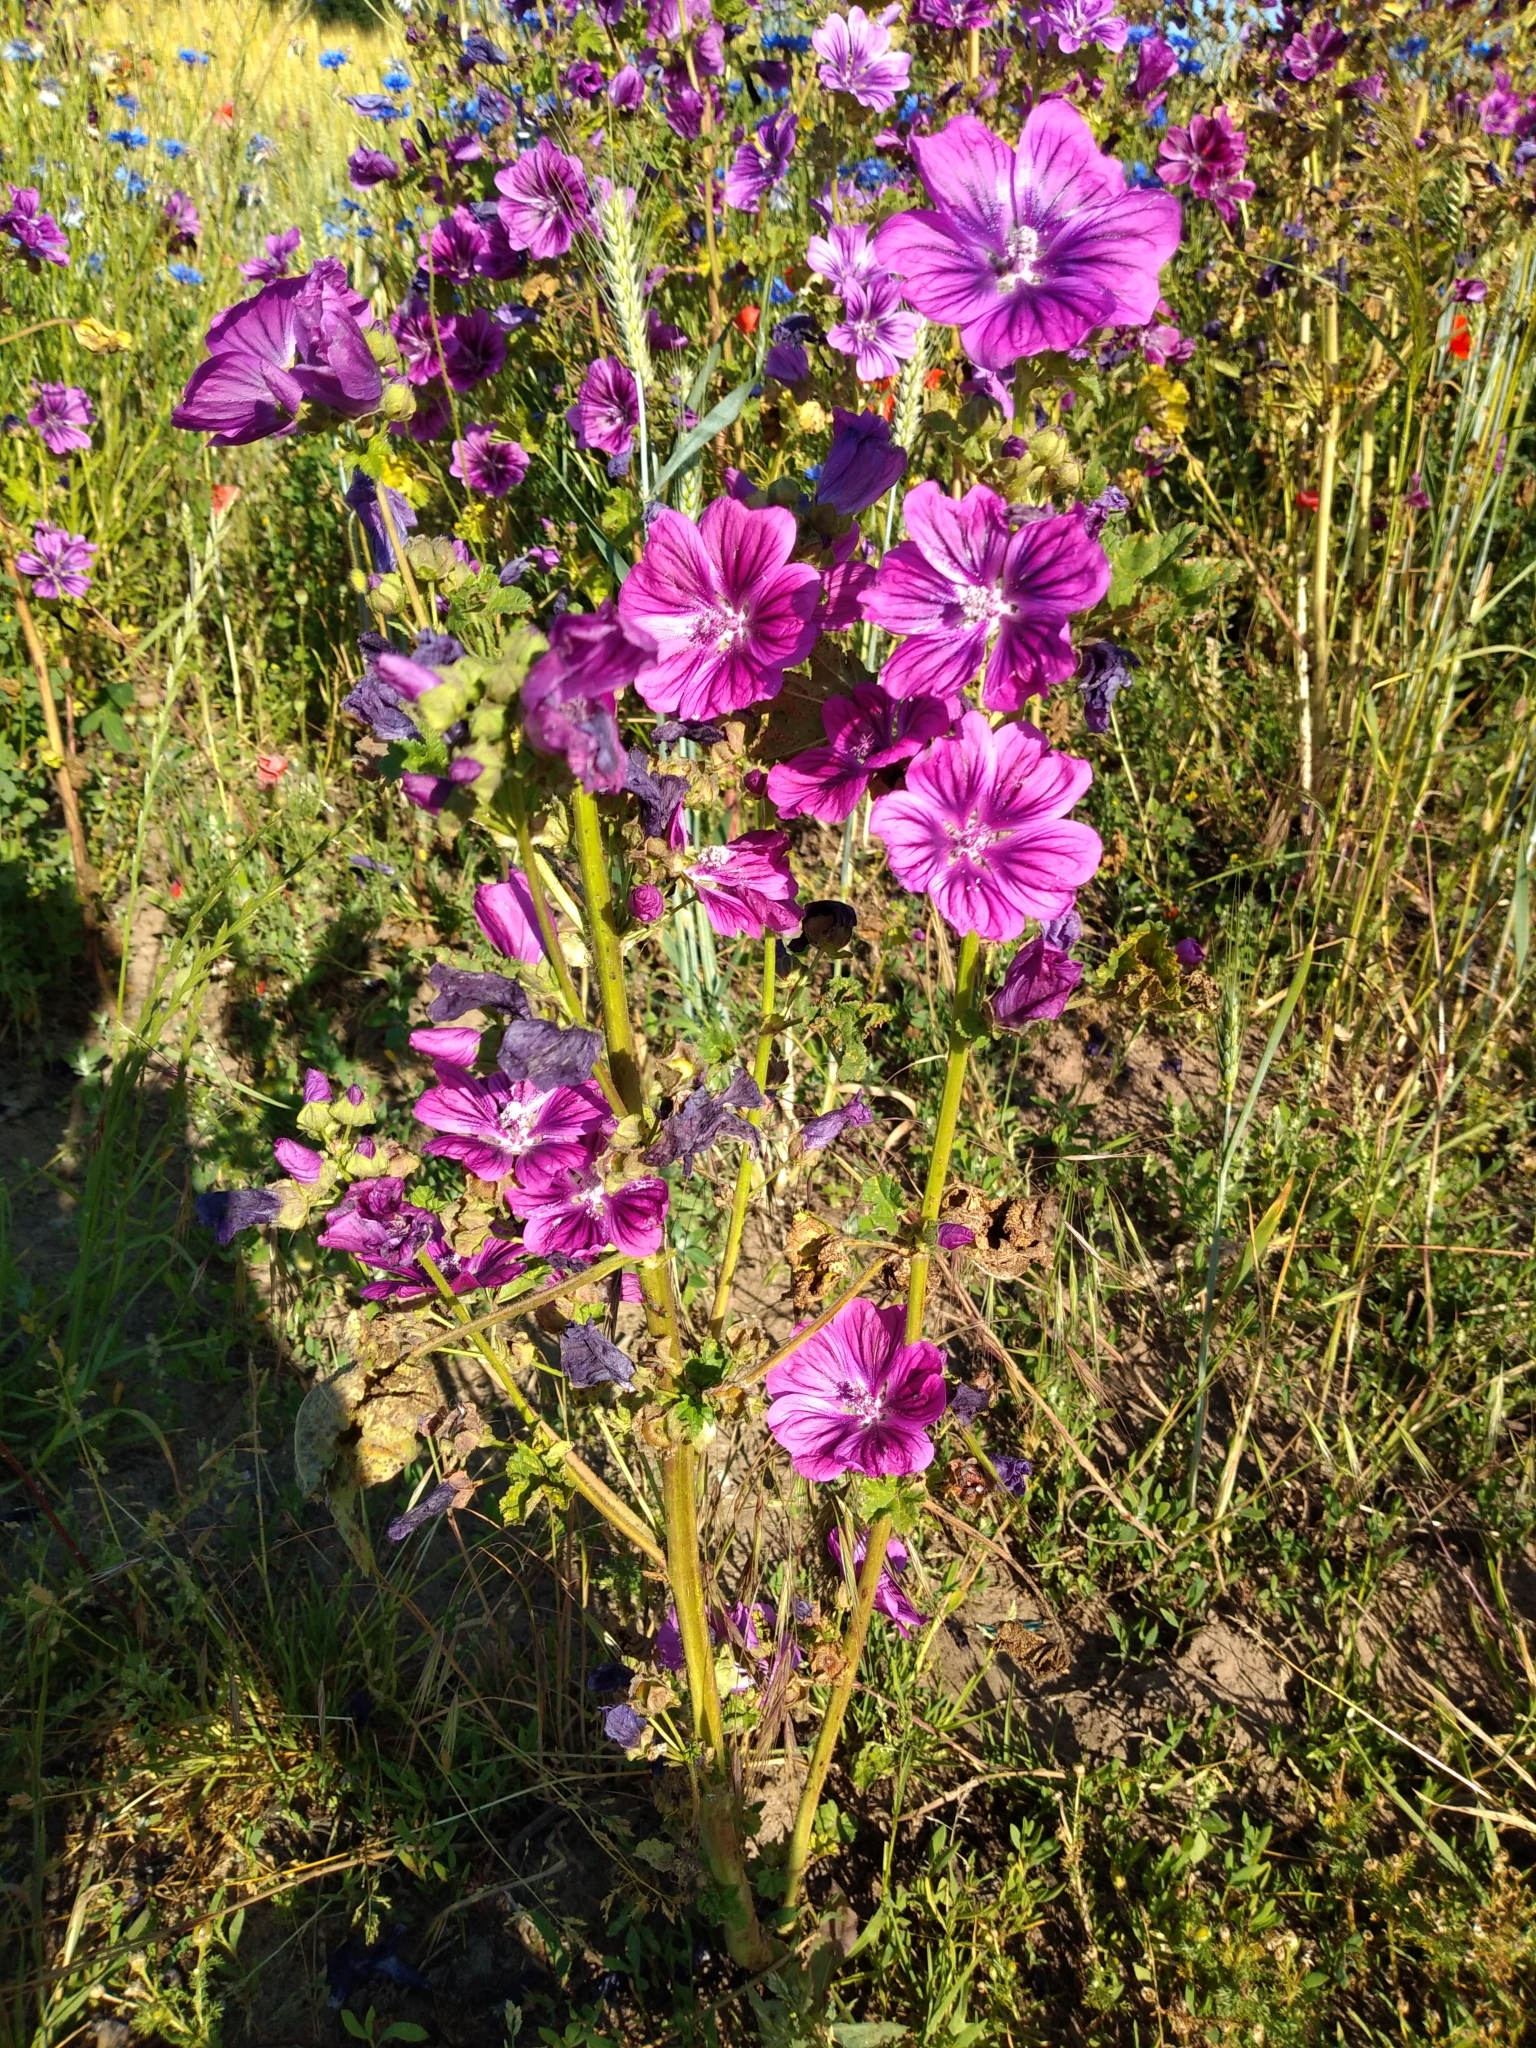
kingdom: Plantae
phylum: Tracheophyta
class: Magnoliopsida
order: Malvales
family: Malvaceae
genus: Malva
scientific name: Malva sylvestris
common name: Common mallow
